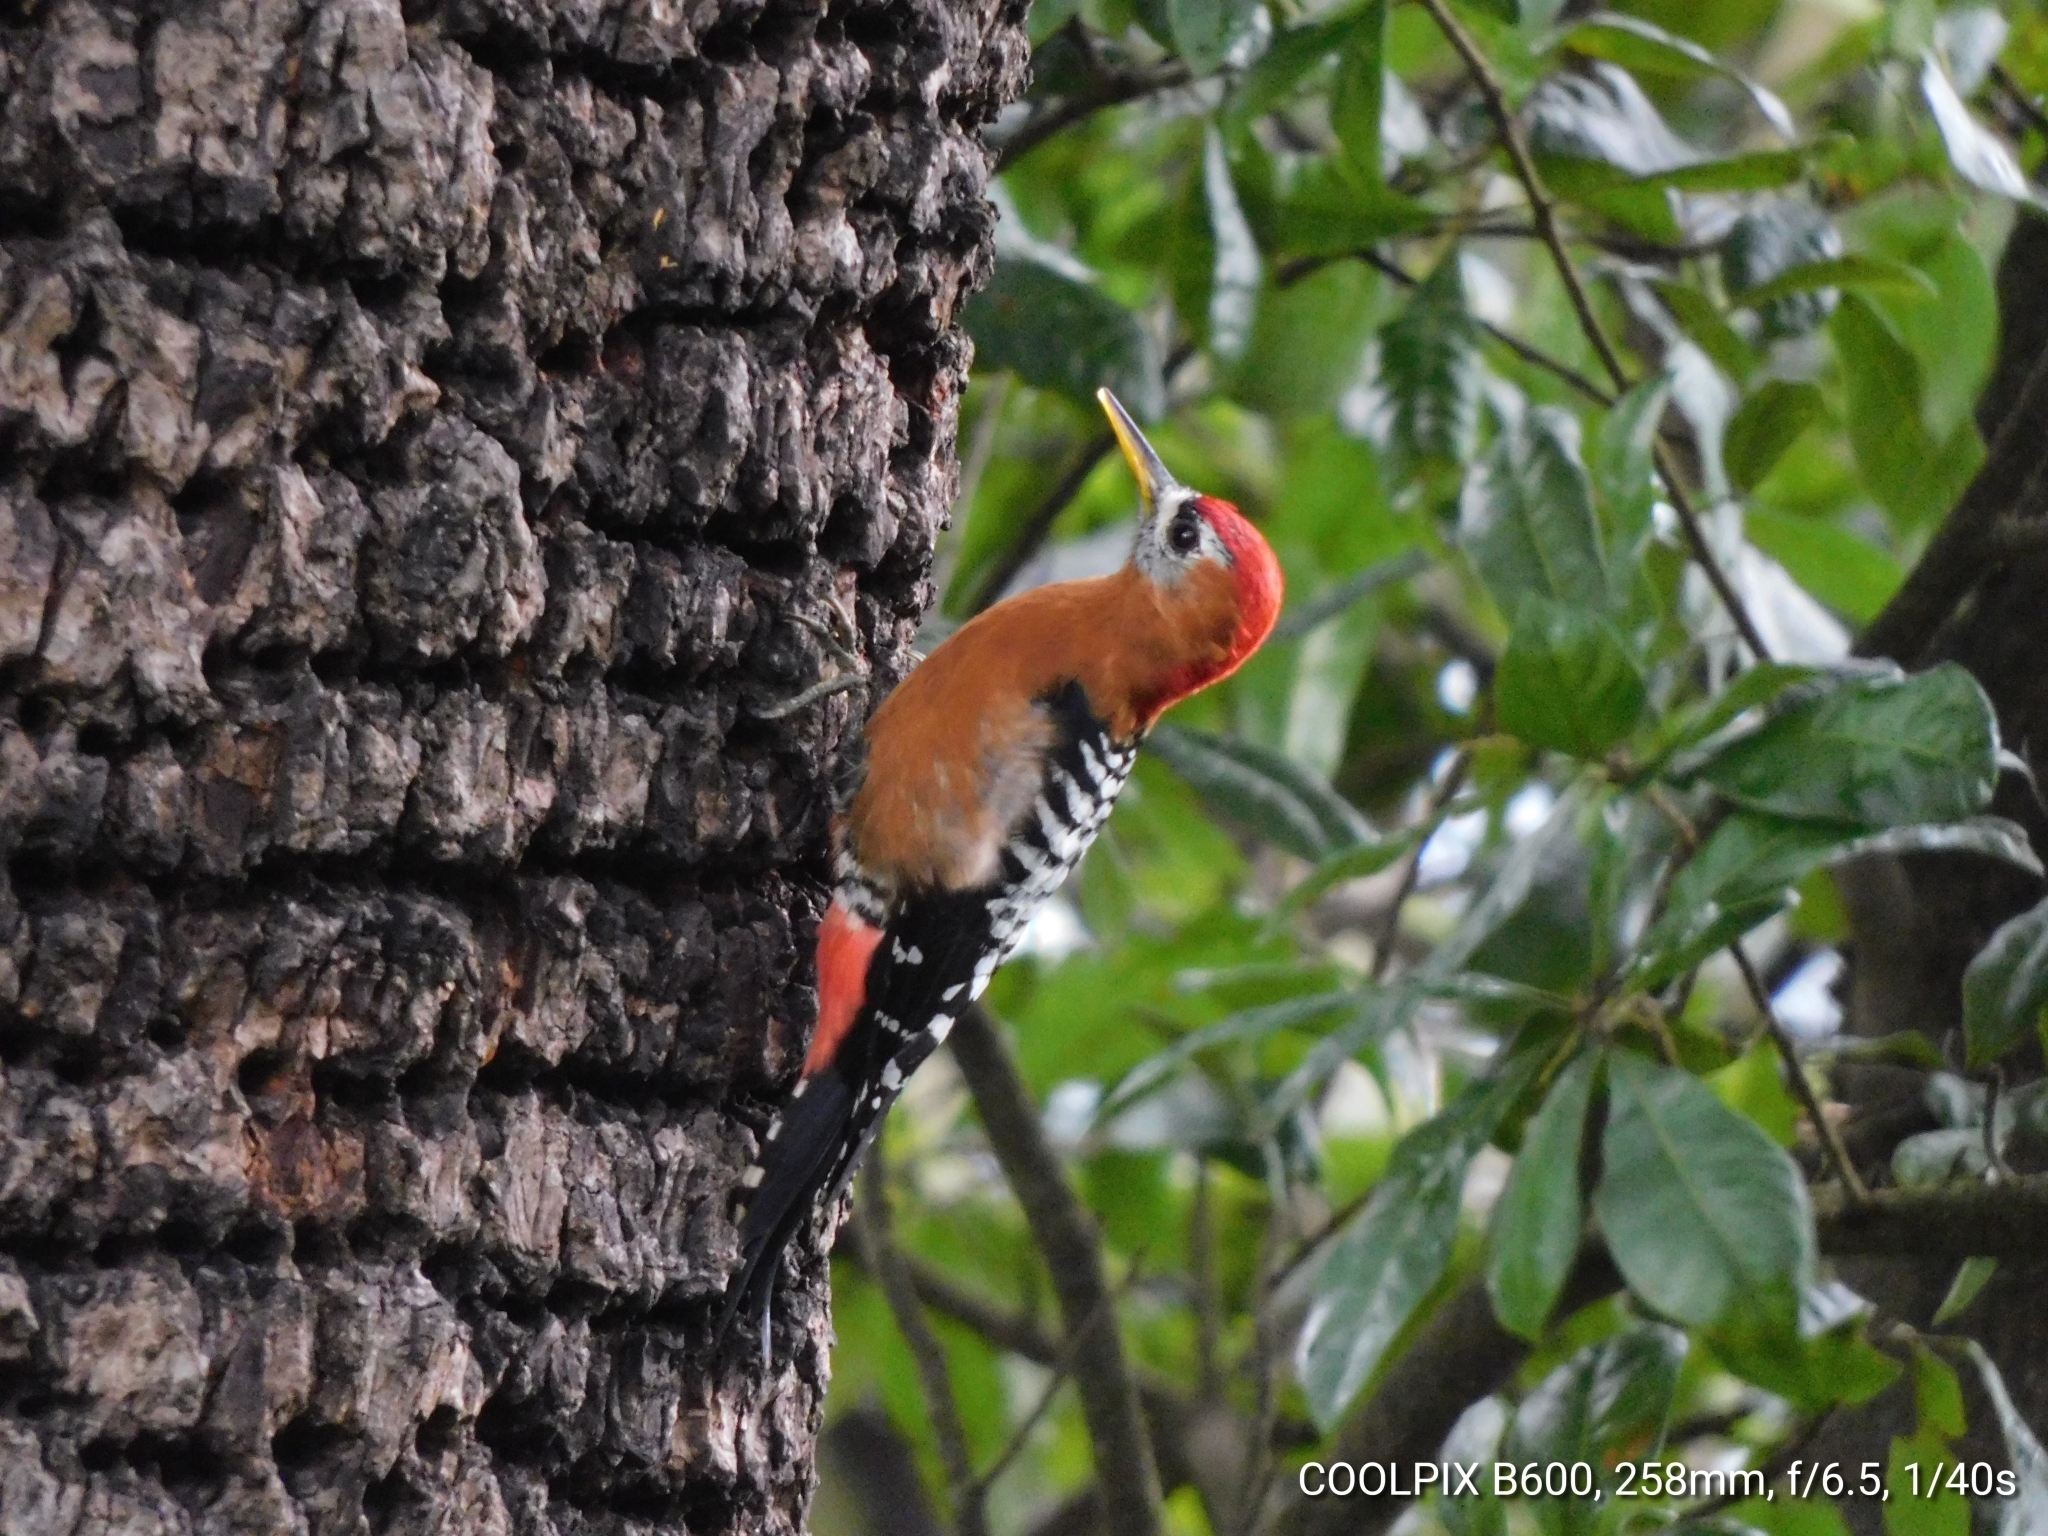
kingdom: Animalia
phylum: Chordata
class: Aves
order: Piciformes
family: Picidae
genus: Dendrocopos
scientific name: Dendrocopos hyperythrus
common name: Rufous-bellied woodpecker
